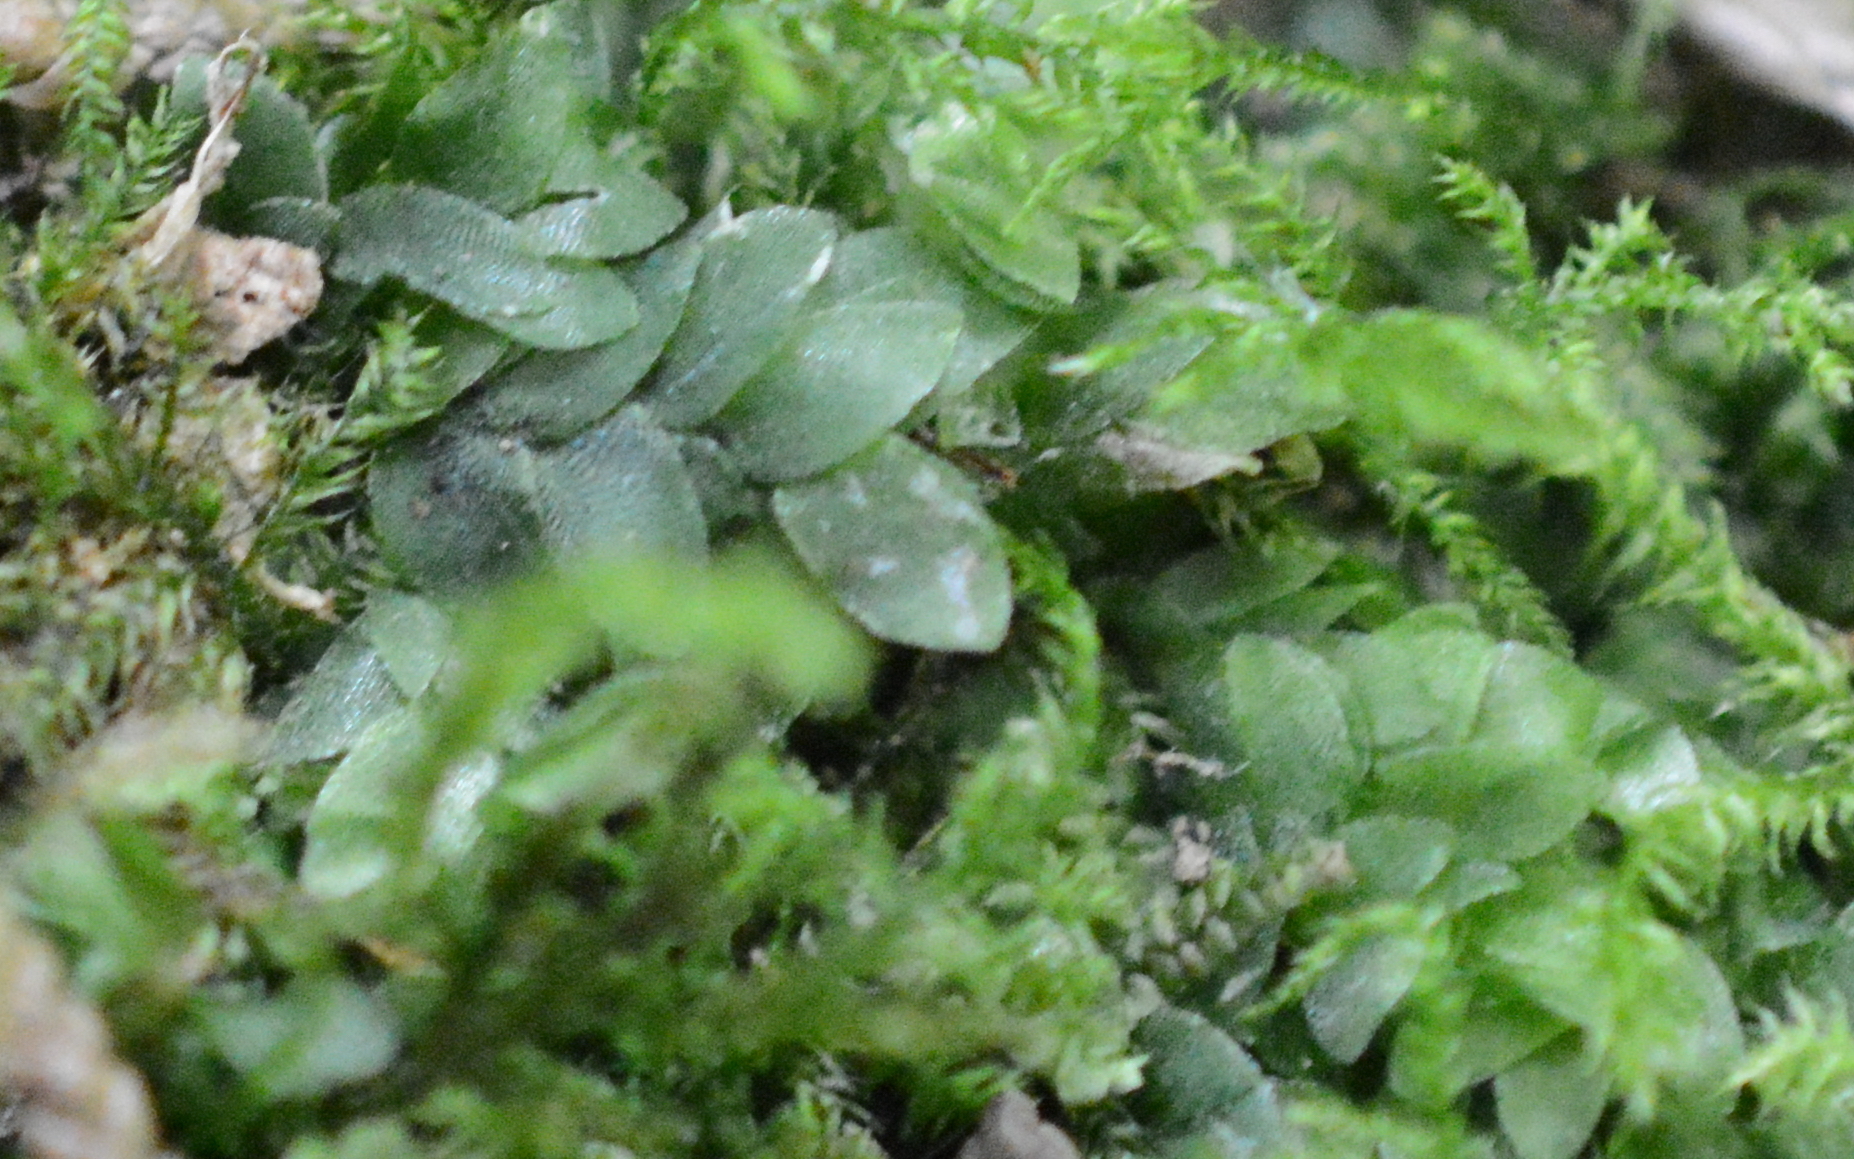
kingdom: Plantae
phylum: Bryophyta
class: Bryopsida
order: Hookeriales
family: Hookeriaceae
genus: Hookeria
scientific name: Hookeria lucens
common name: Shining hookeria
